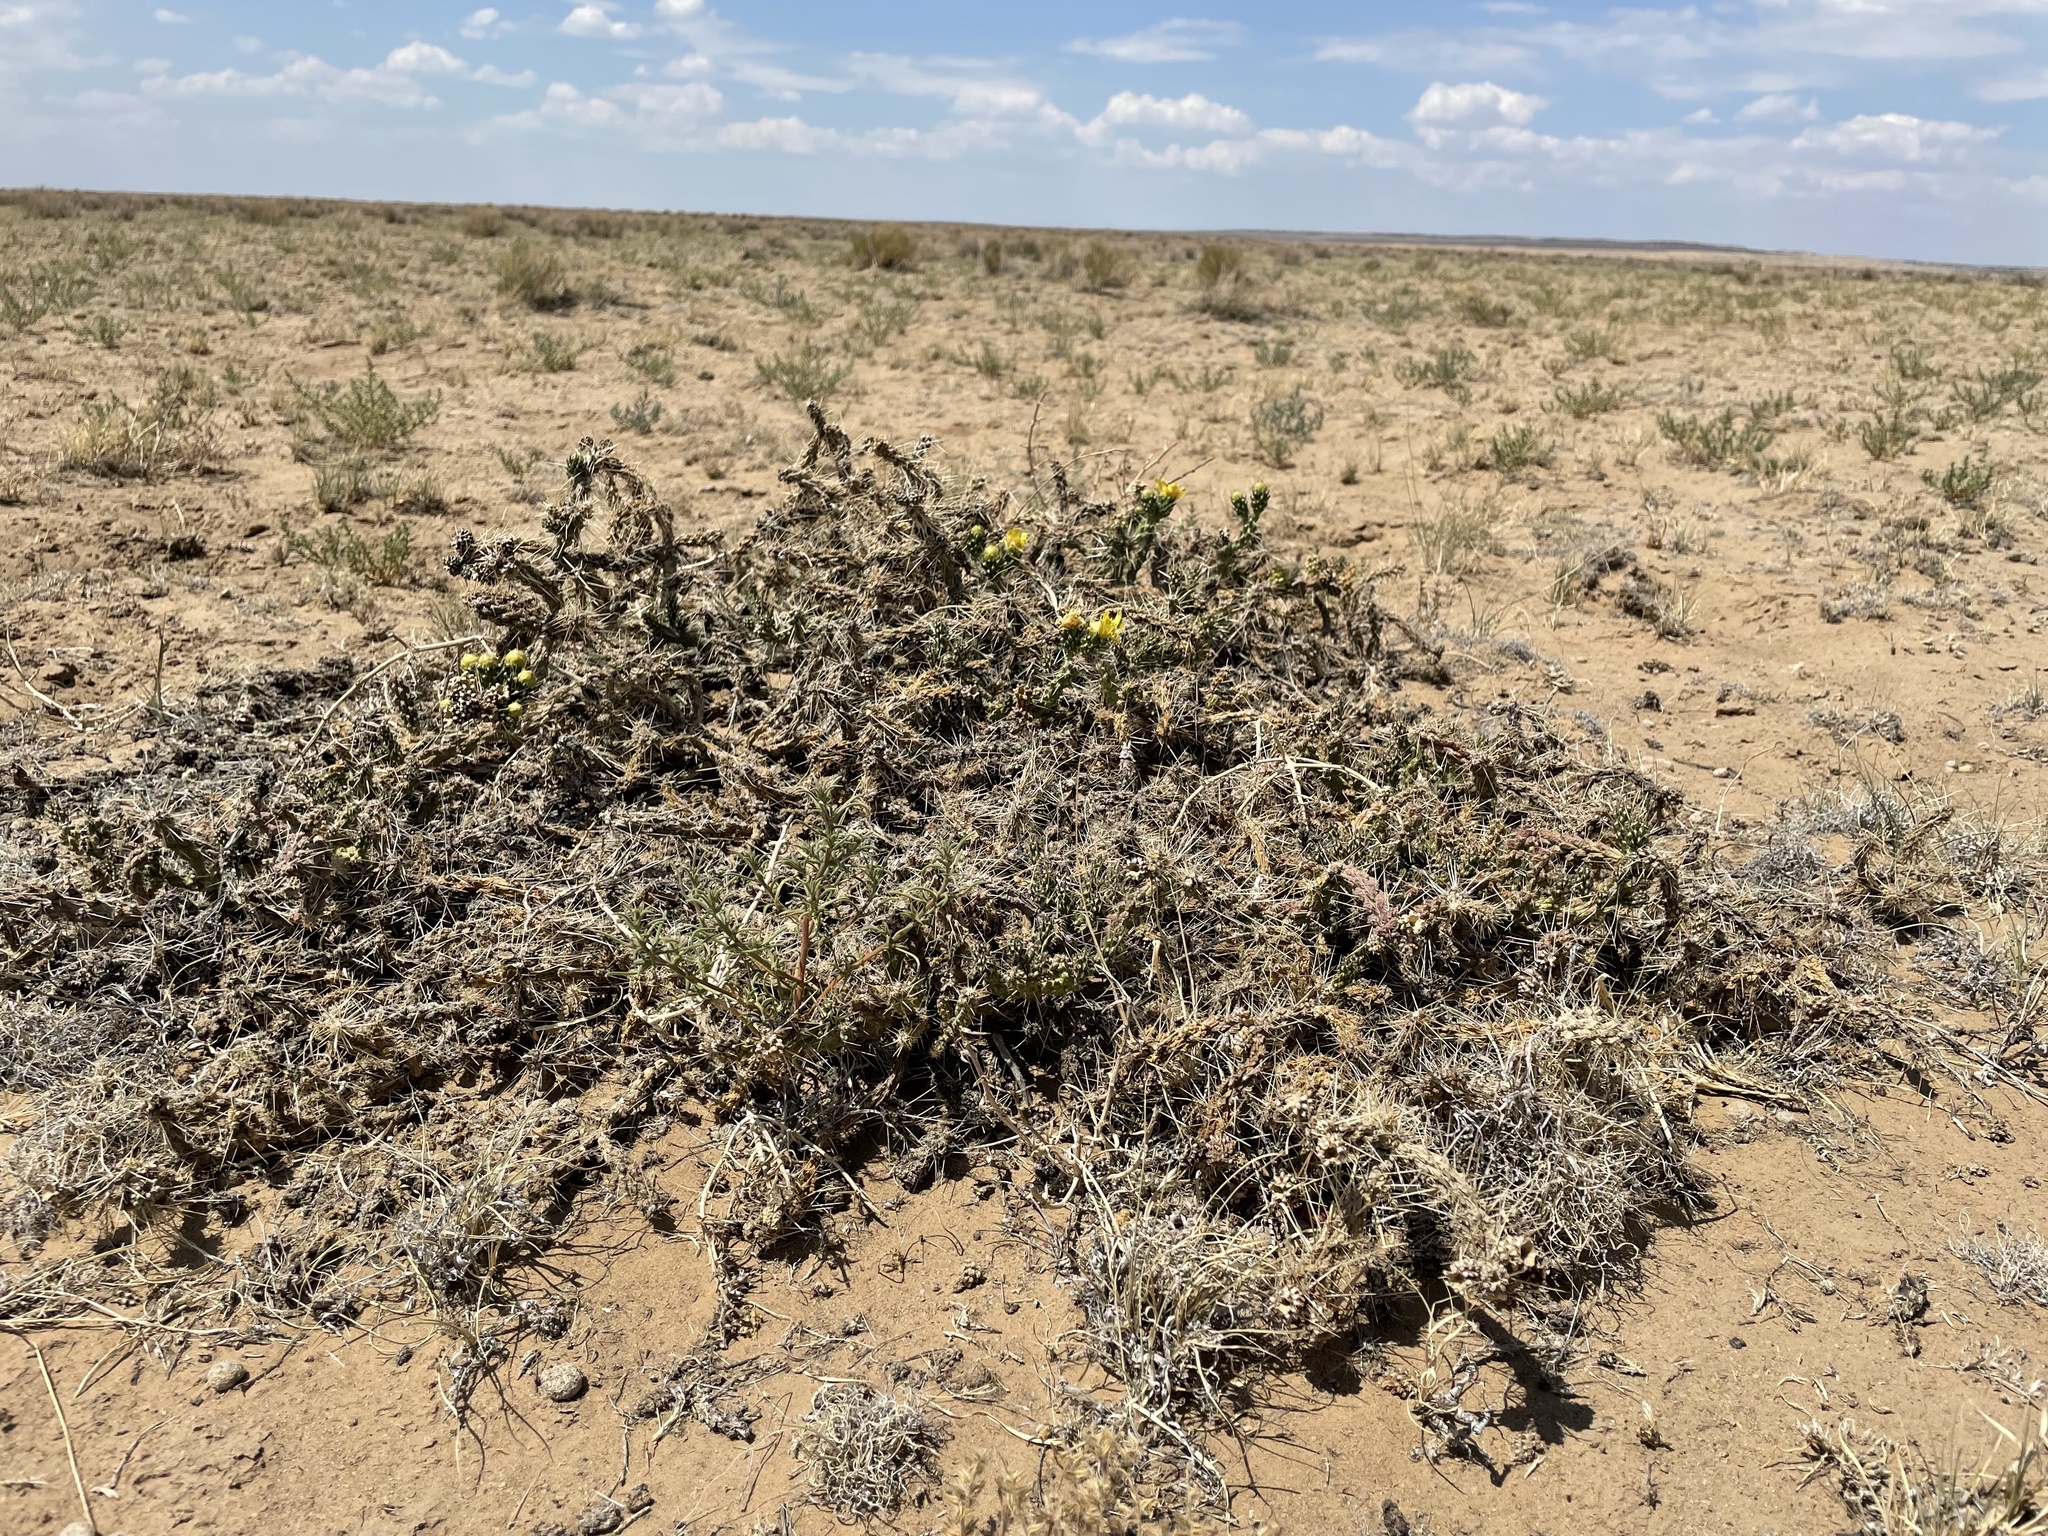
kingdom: Plantae
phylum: Tracheophyta
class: Magnoliopsida
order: Caryophyllales
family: Cactaceae
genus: Cylindropuntia
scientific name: Cylindropuntia whipplei
